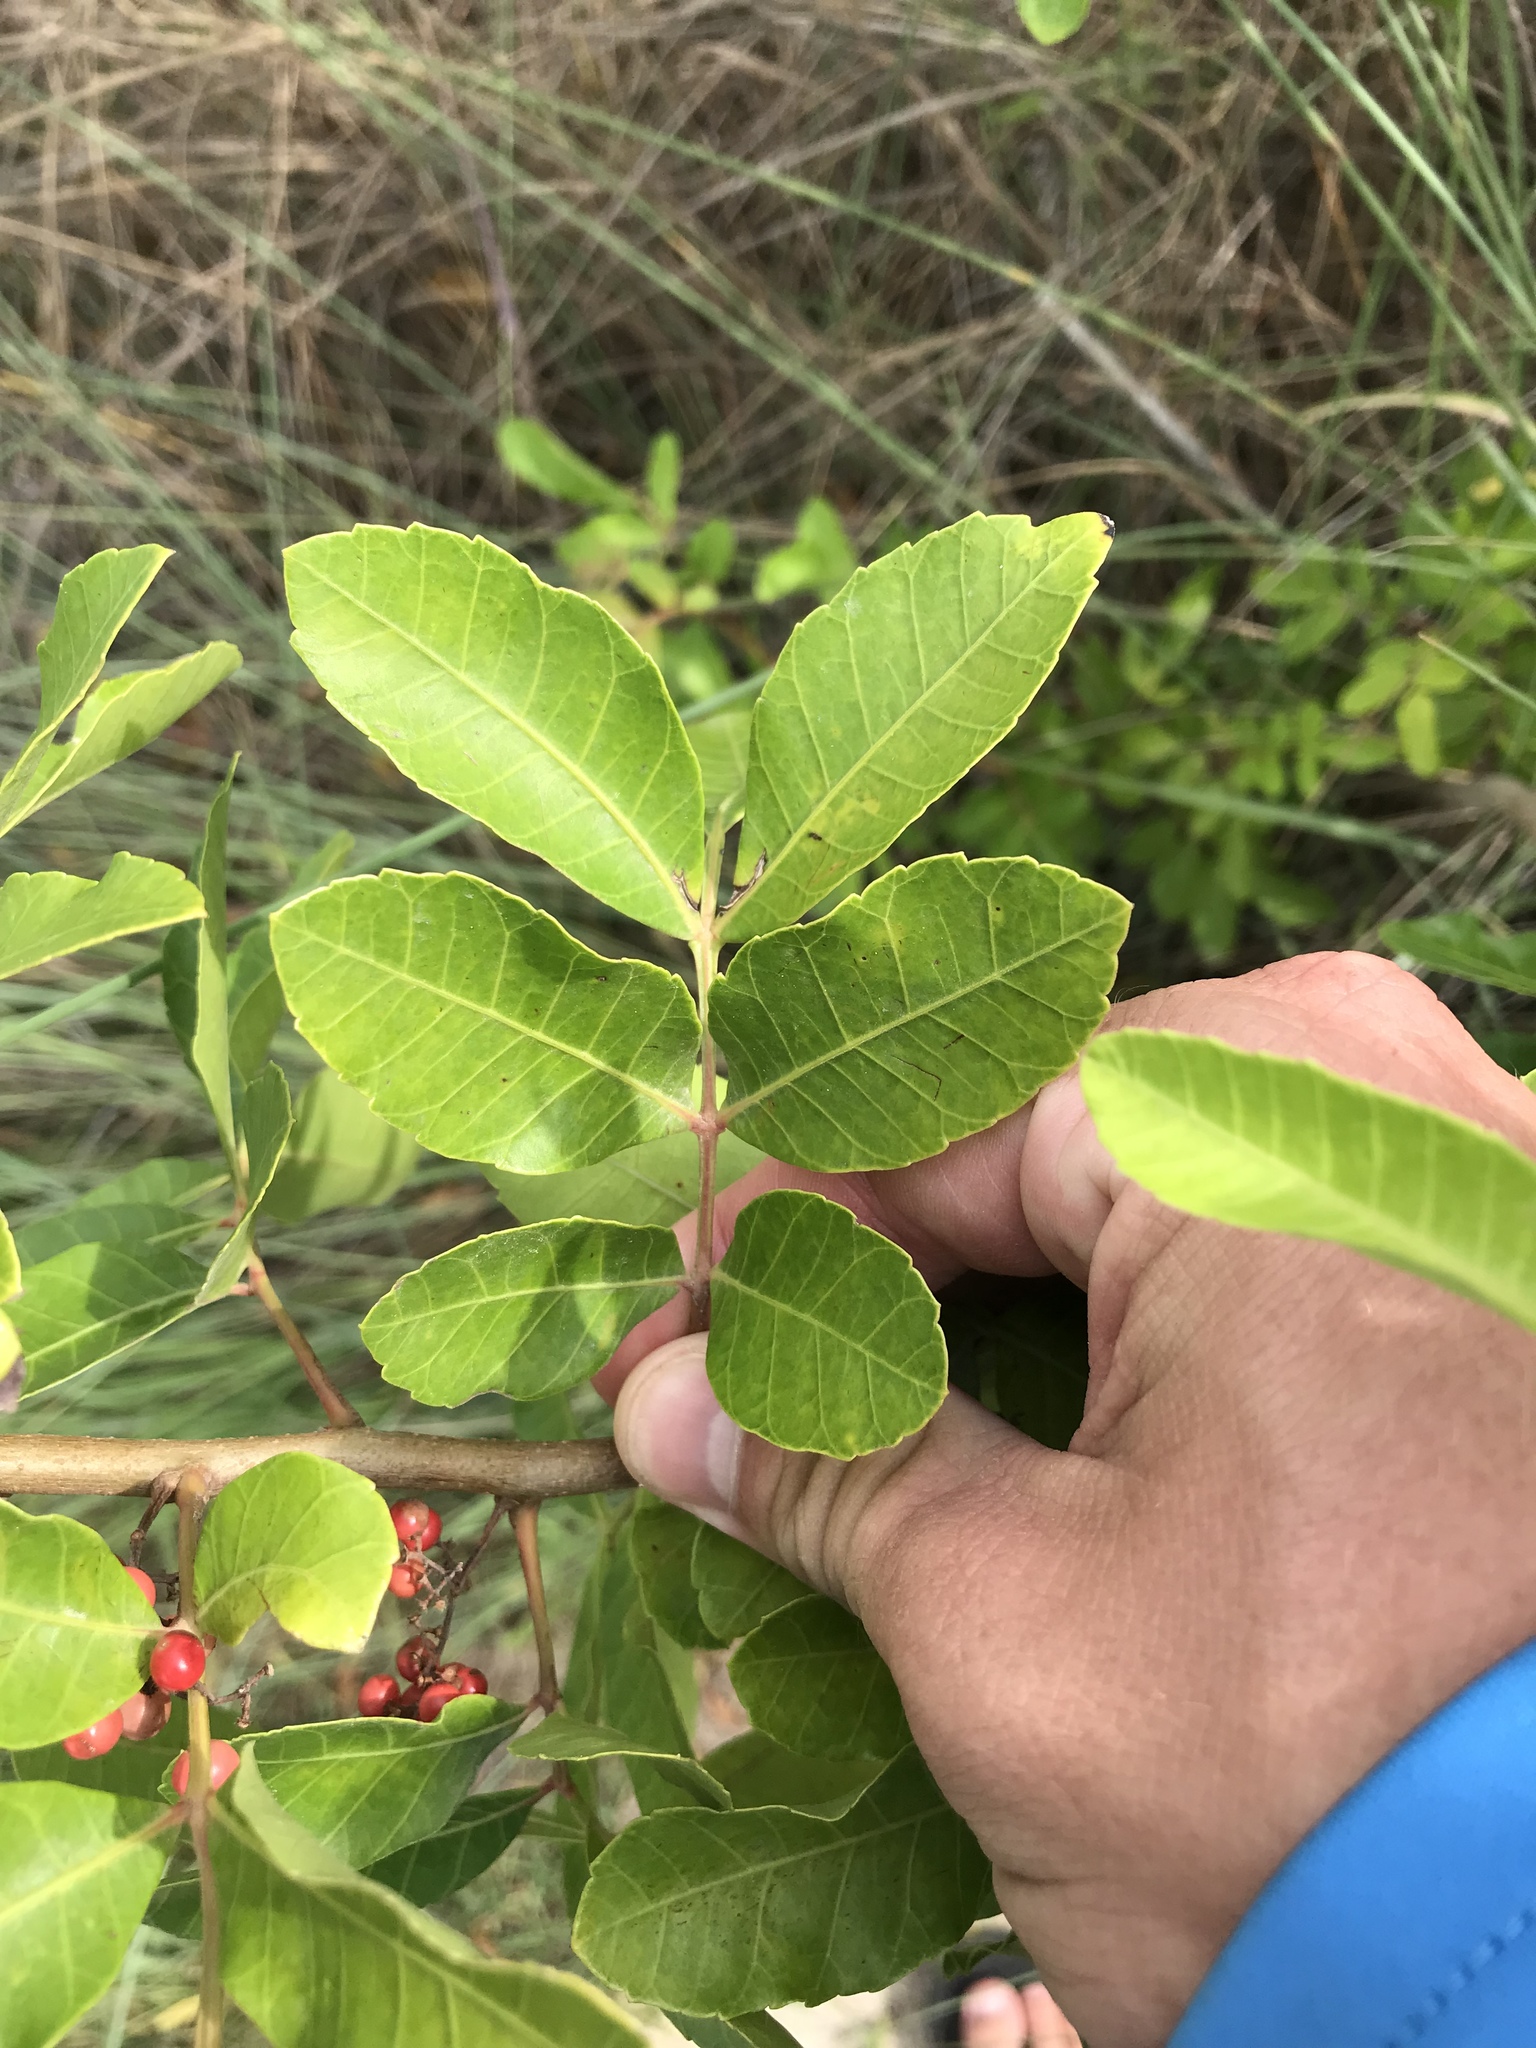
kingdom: Plantae
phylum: Tracheophyta
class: Magnoliopsida
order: Sapindales
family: Anacardiaceae
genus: Schinus
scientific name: Schinus terebinthifolia
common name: Brazilian peppertree
